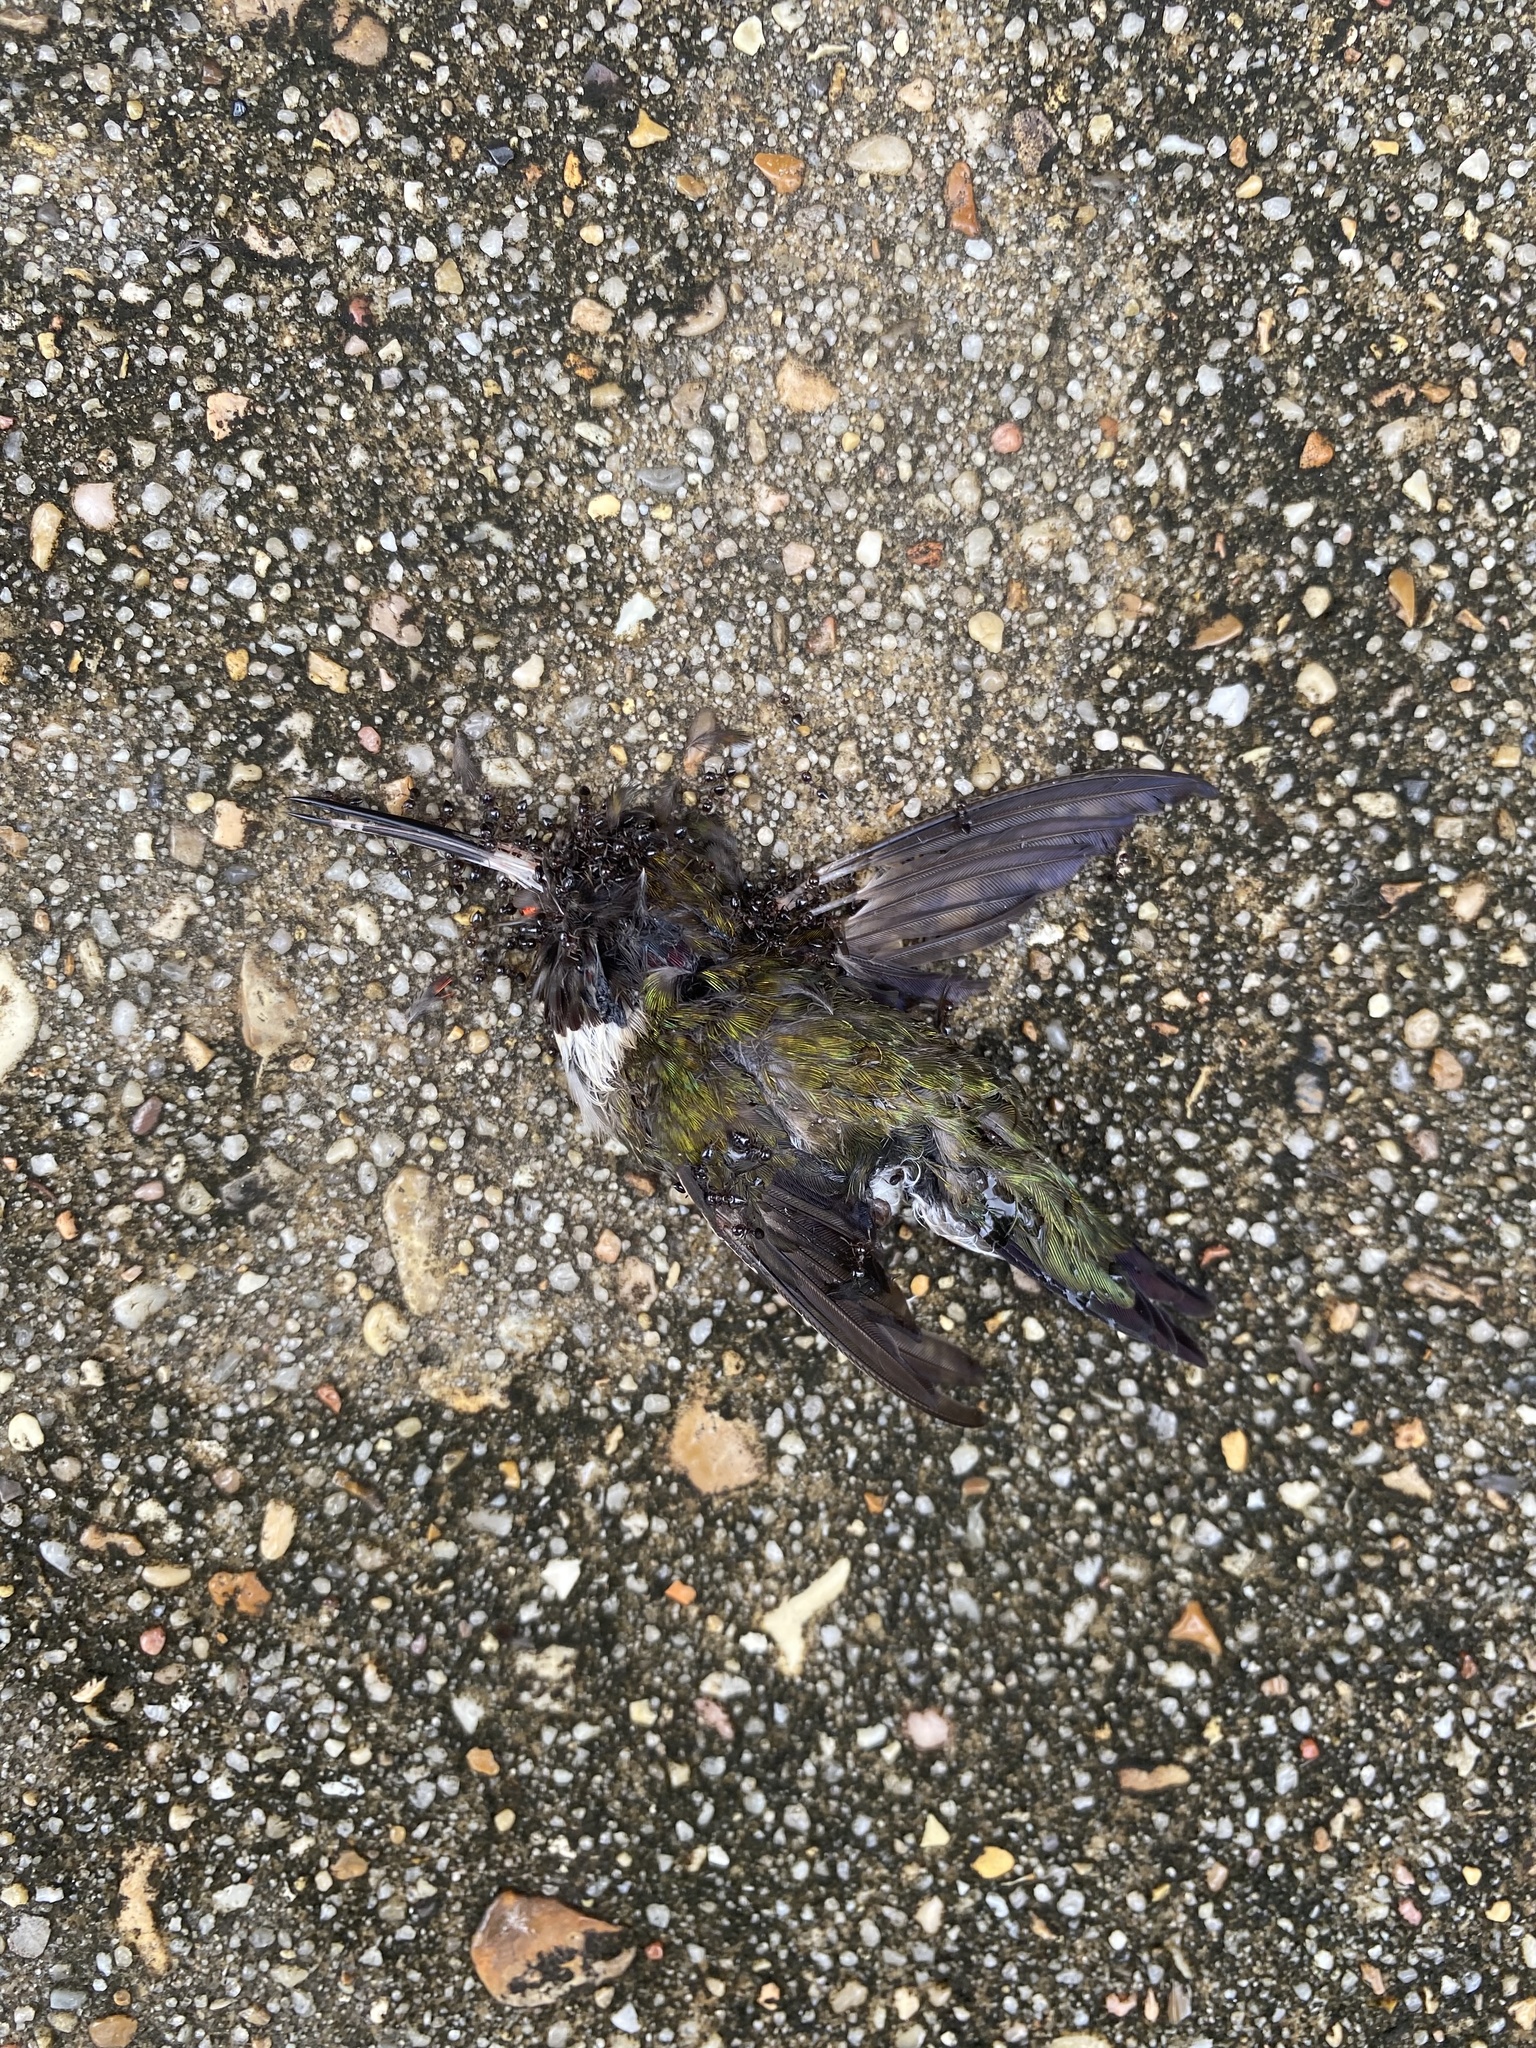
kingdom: Animalia
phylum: Chordata
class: Aves
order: Apodiformes
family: Trochilidae
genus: Archilochus
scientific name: Archilochus colubris
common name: Ruby-throated hummingbird
